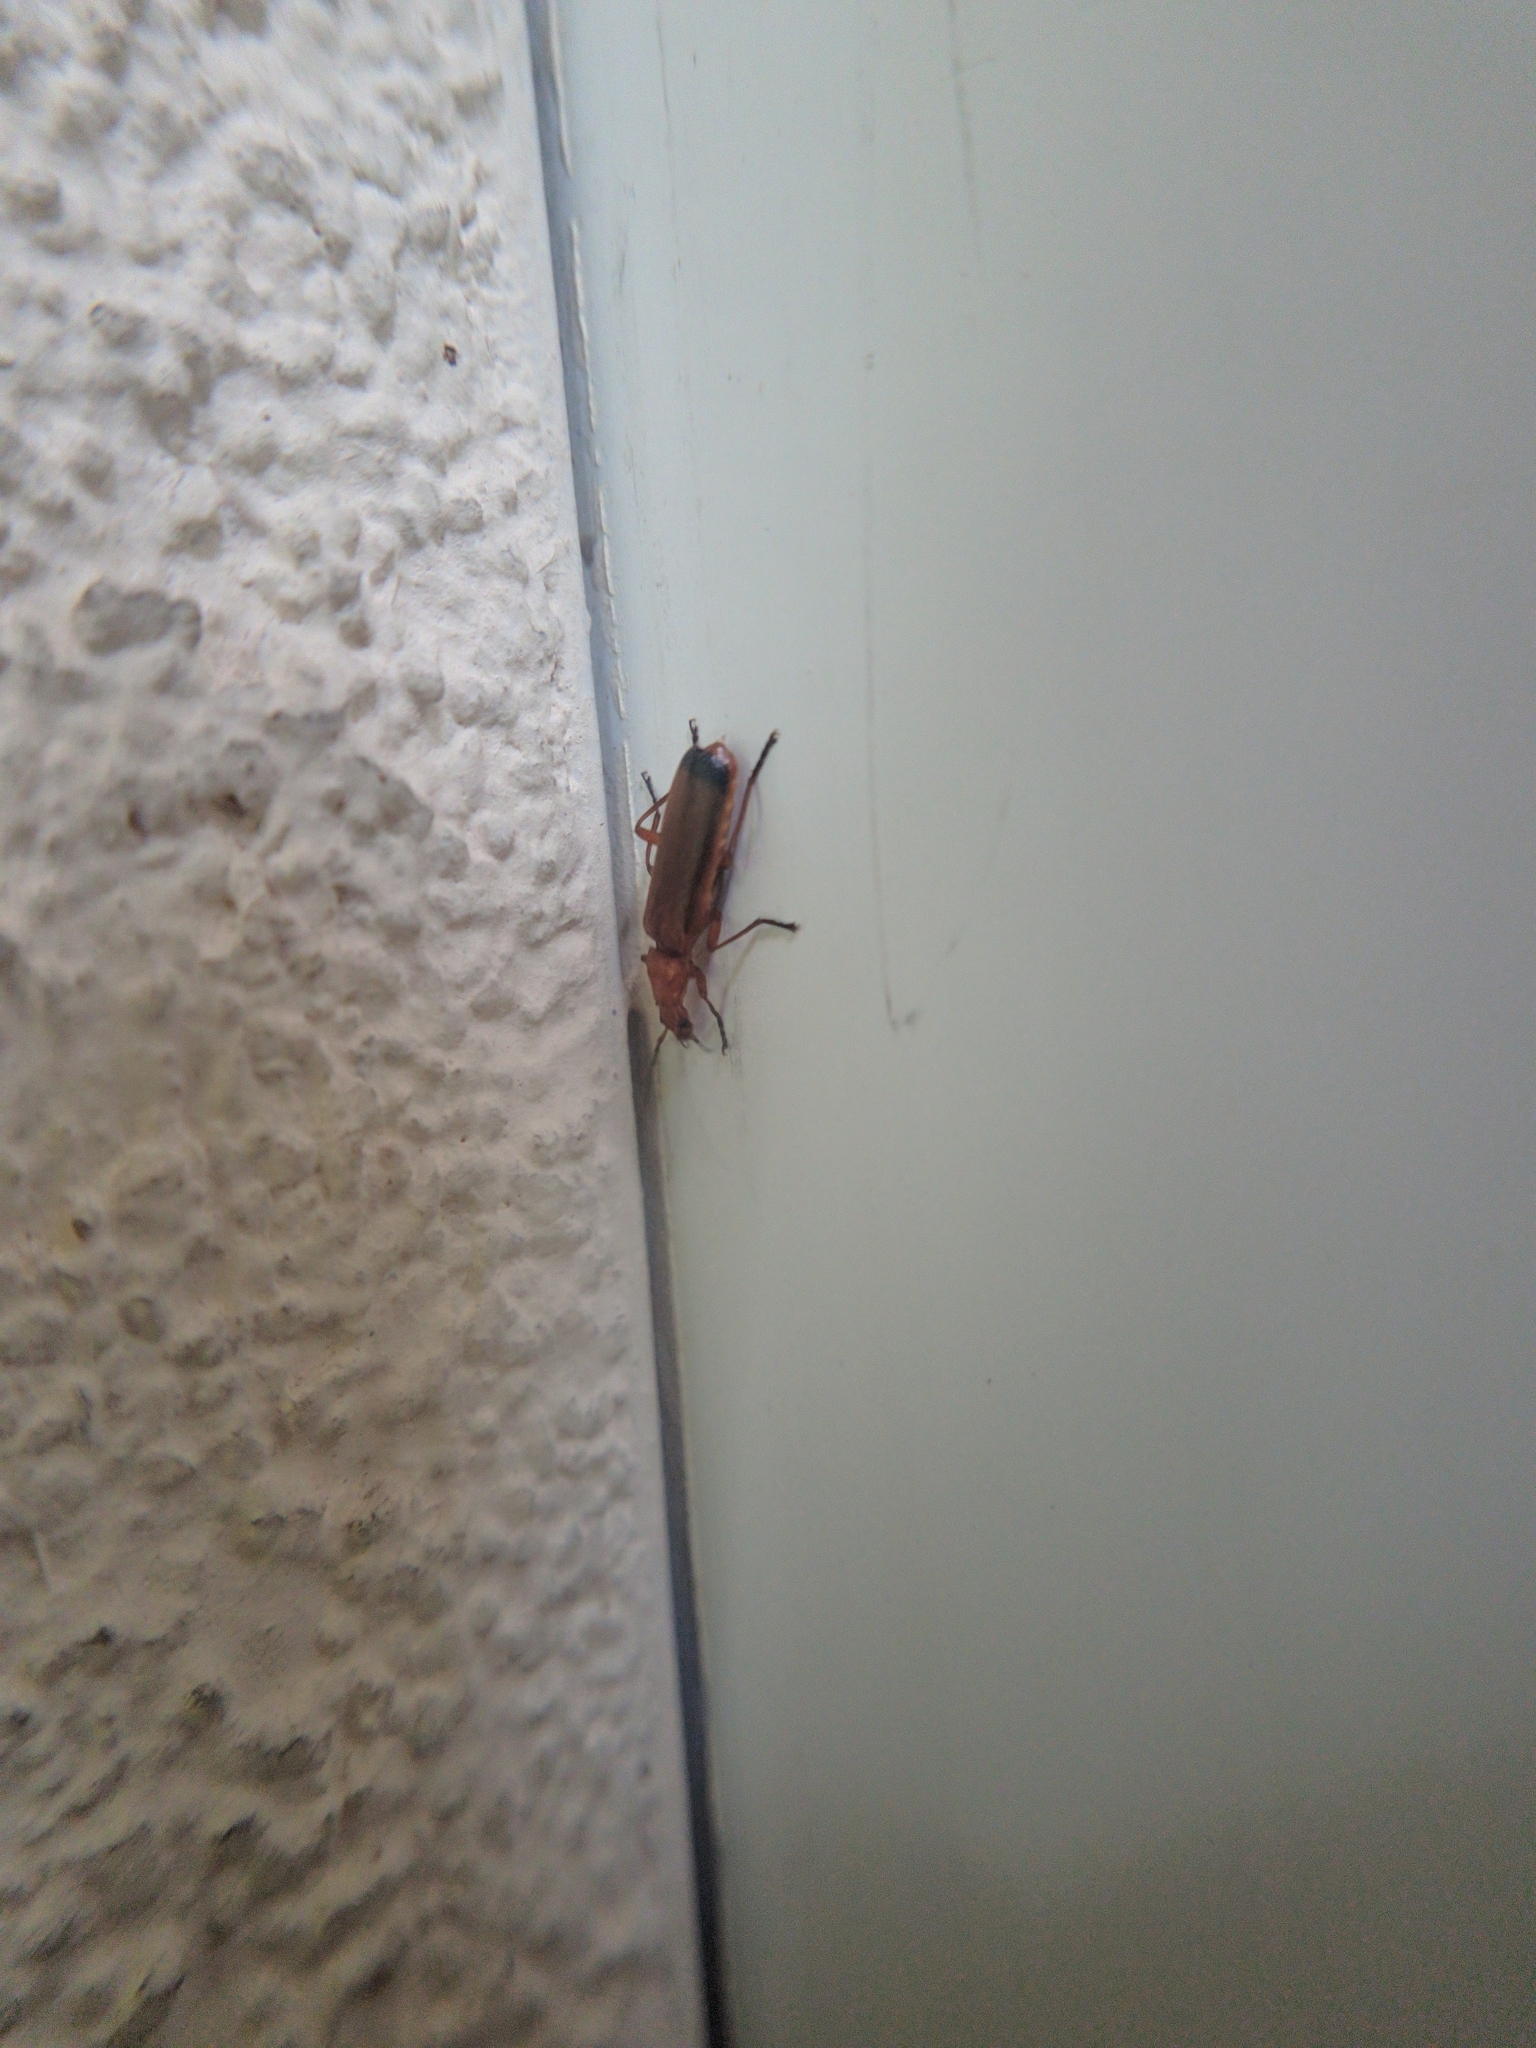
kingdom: Animalia
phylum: Arthropoda
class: Insecta
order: Coleoptera
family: Cantharidae
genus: Rhagonycha
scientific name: Rhagonycha fulva
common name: Common red soldier beetle
